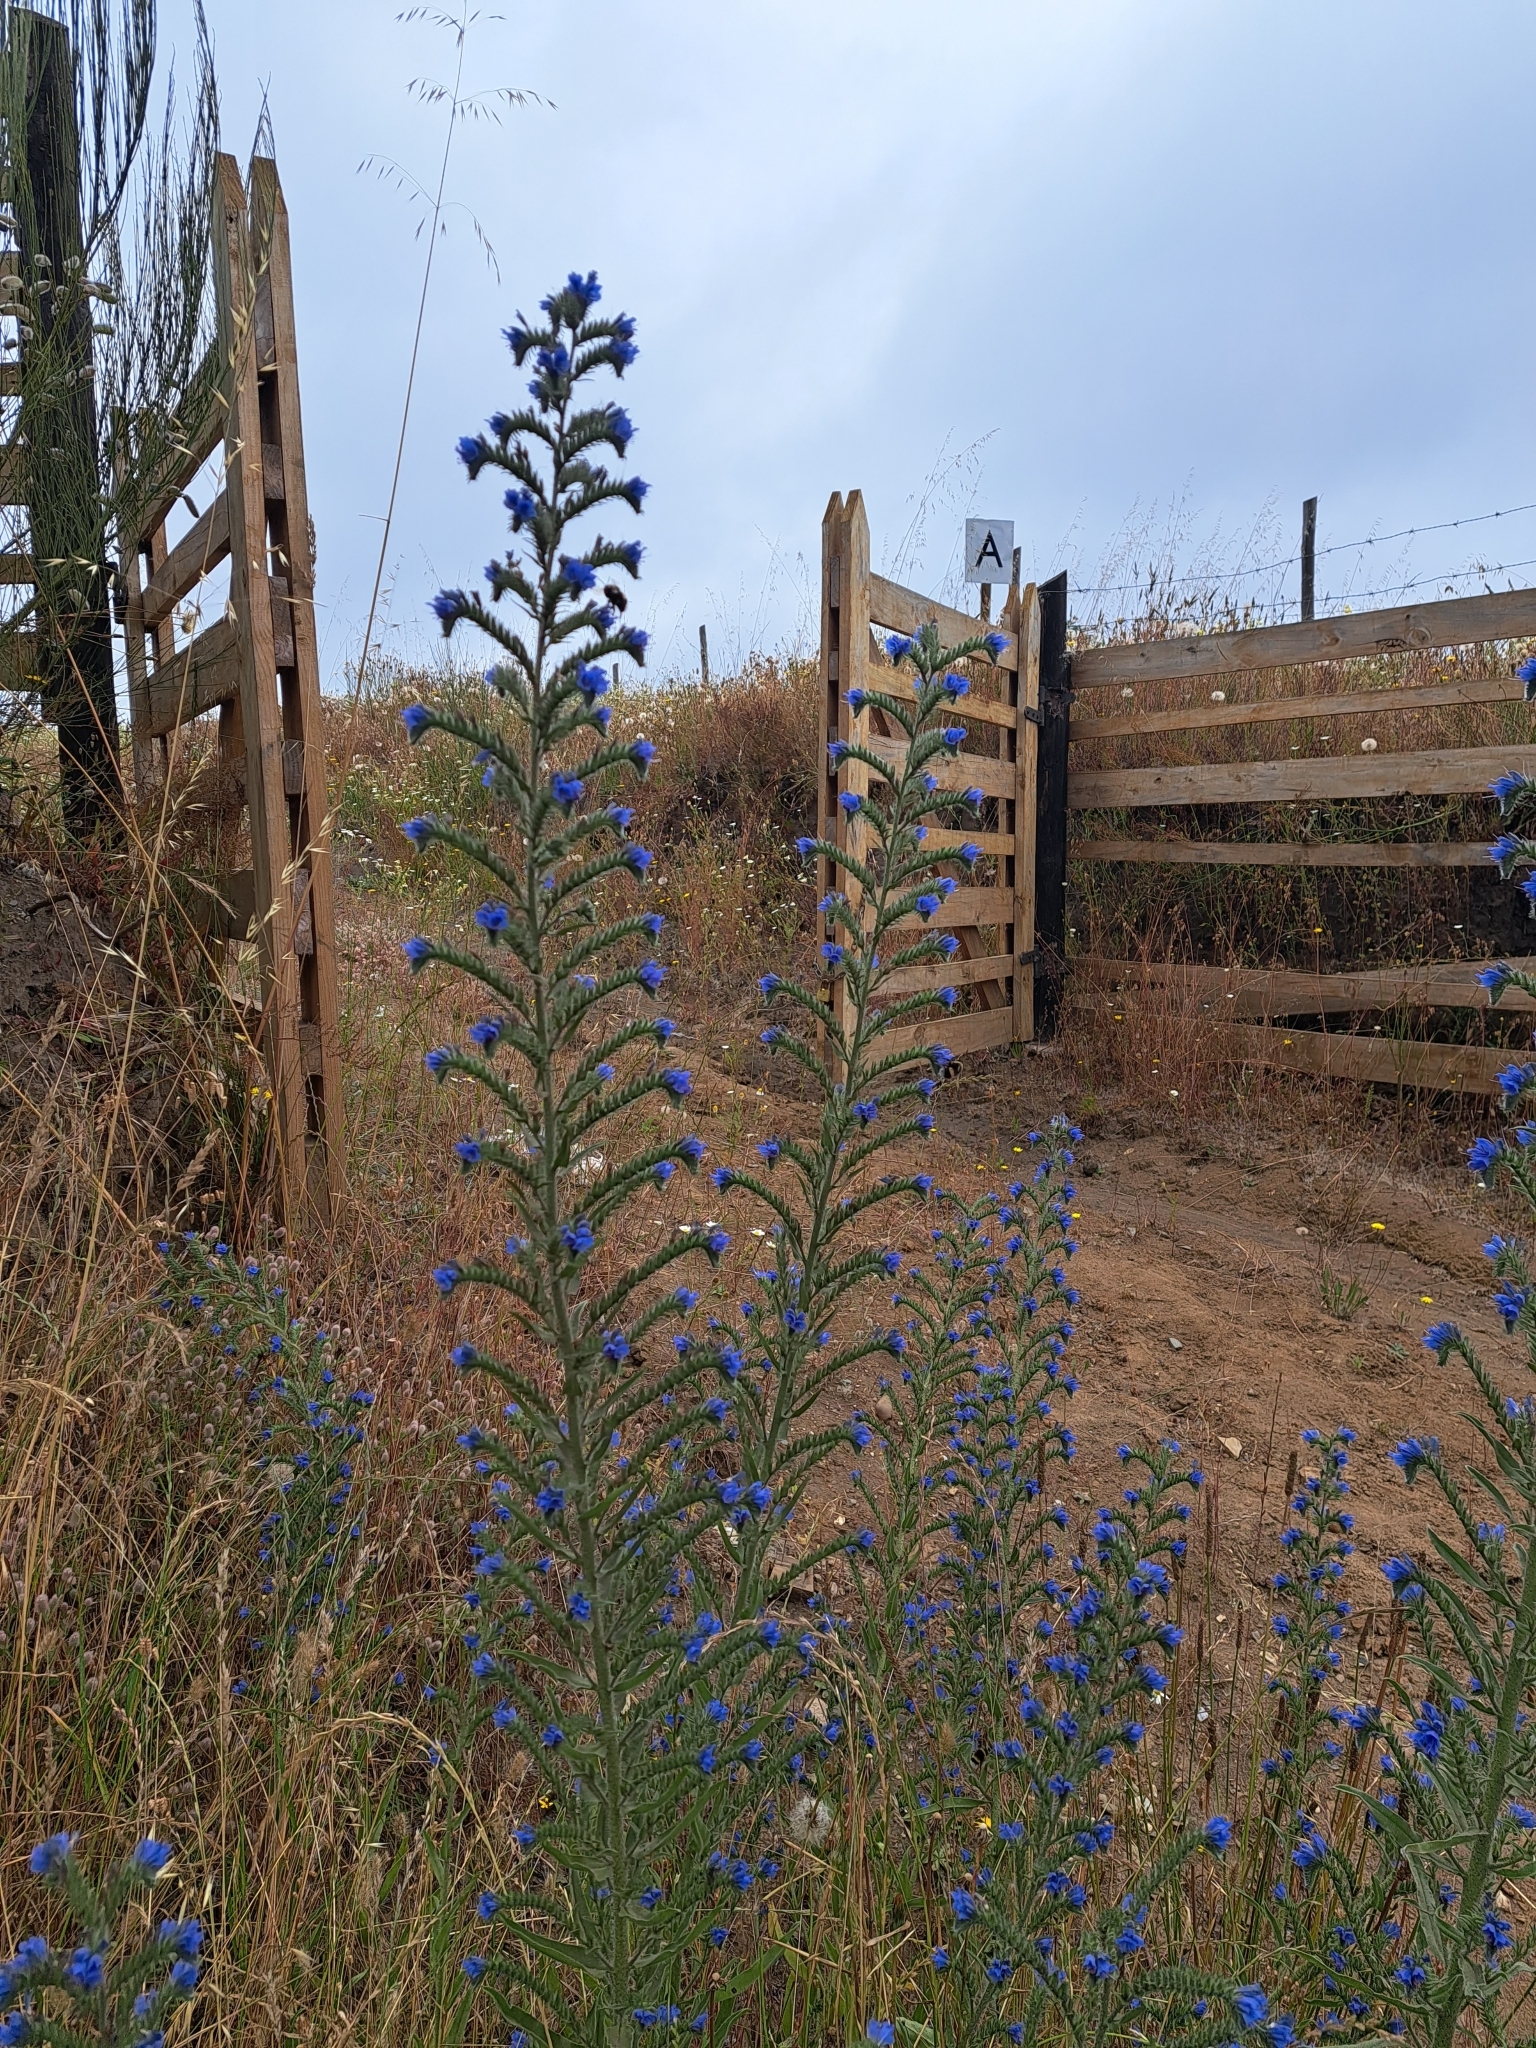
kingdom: Plantae
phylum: Tracheophyta
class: Magnoliopsida
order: Boraginales
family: Boraginaceae
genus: Echium
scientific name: Echium vulgare
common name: Common viper's bugloss
